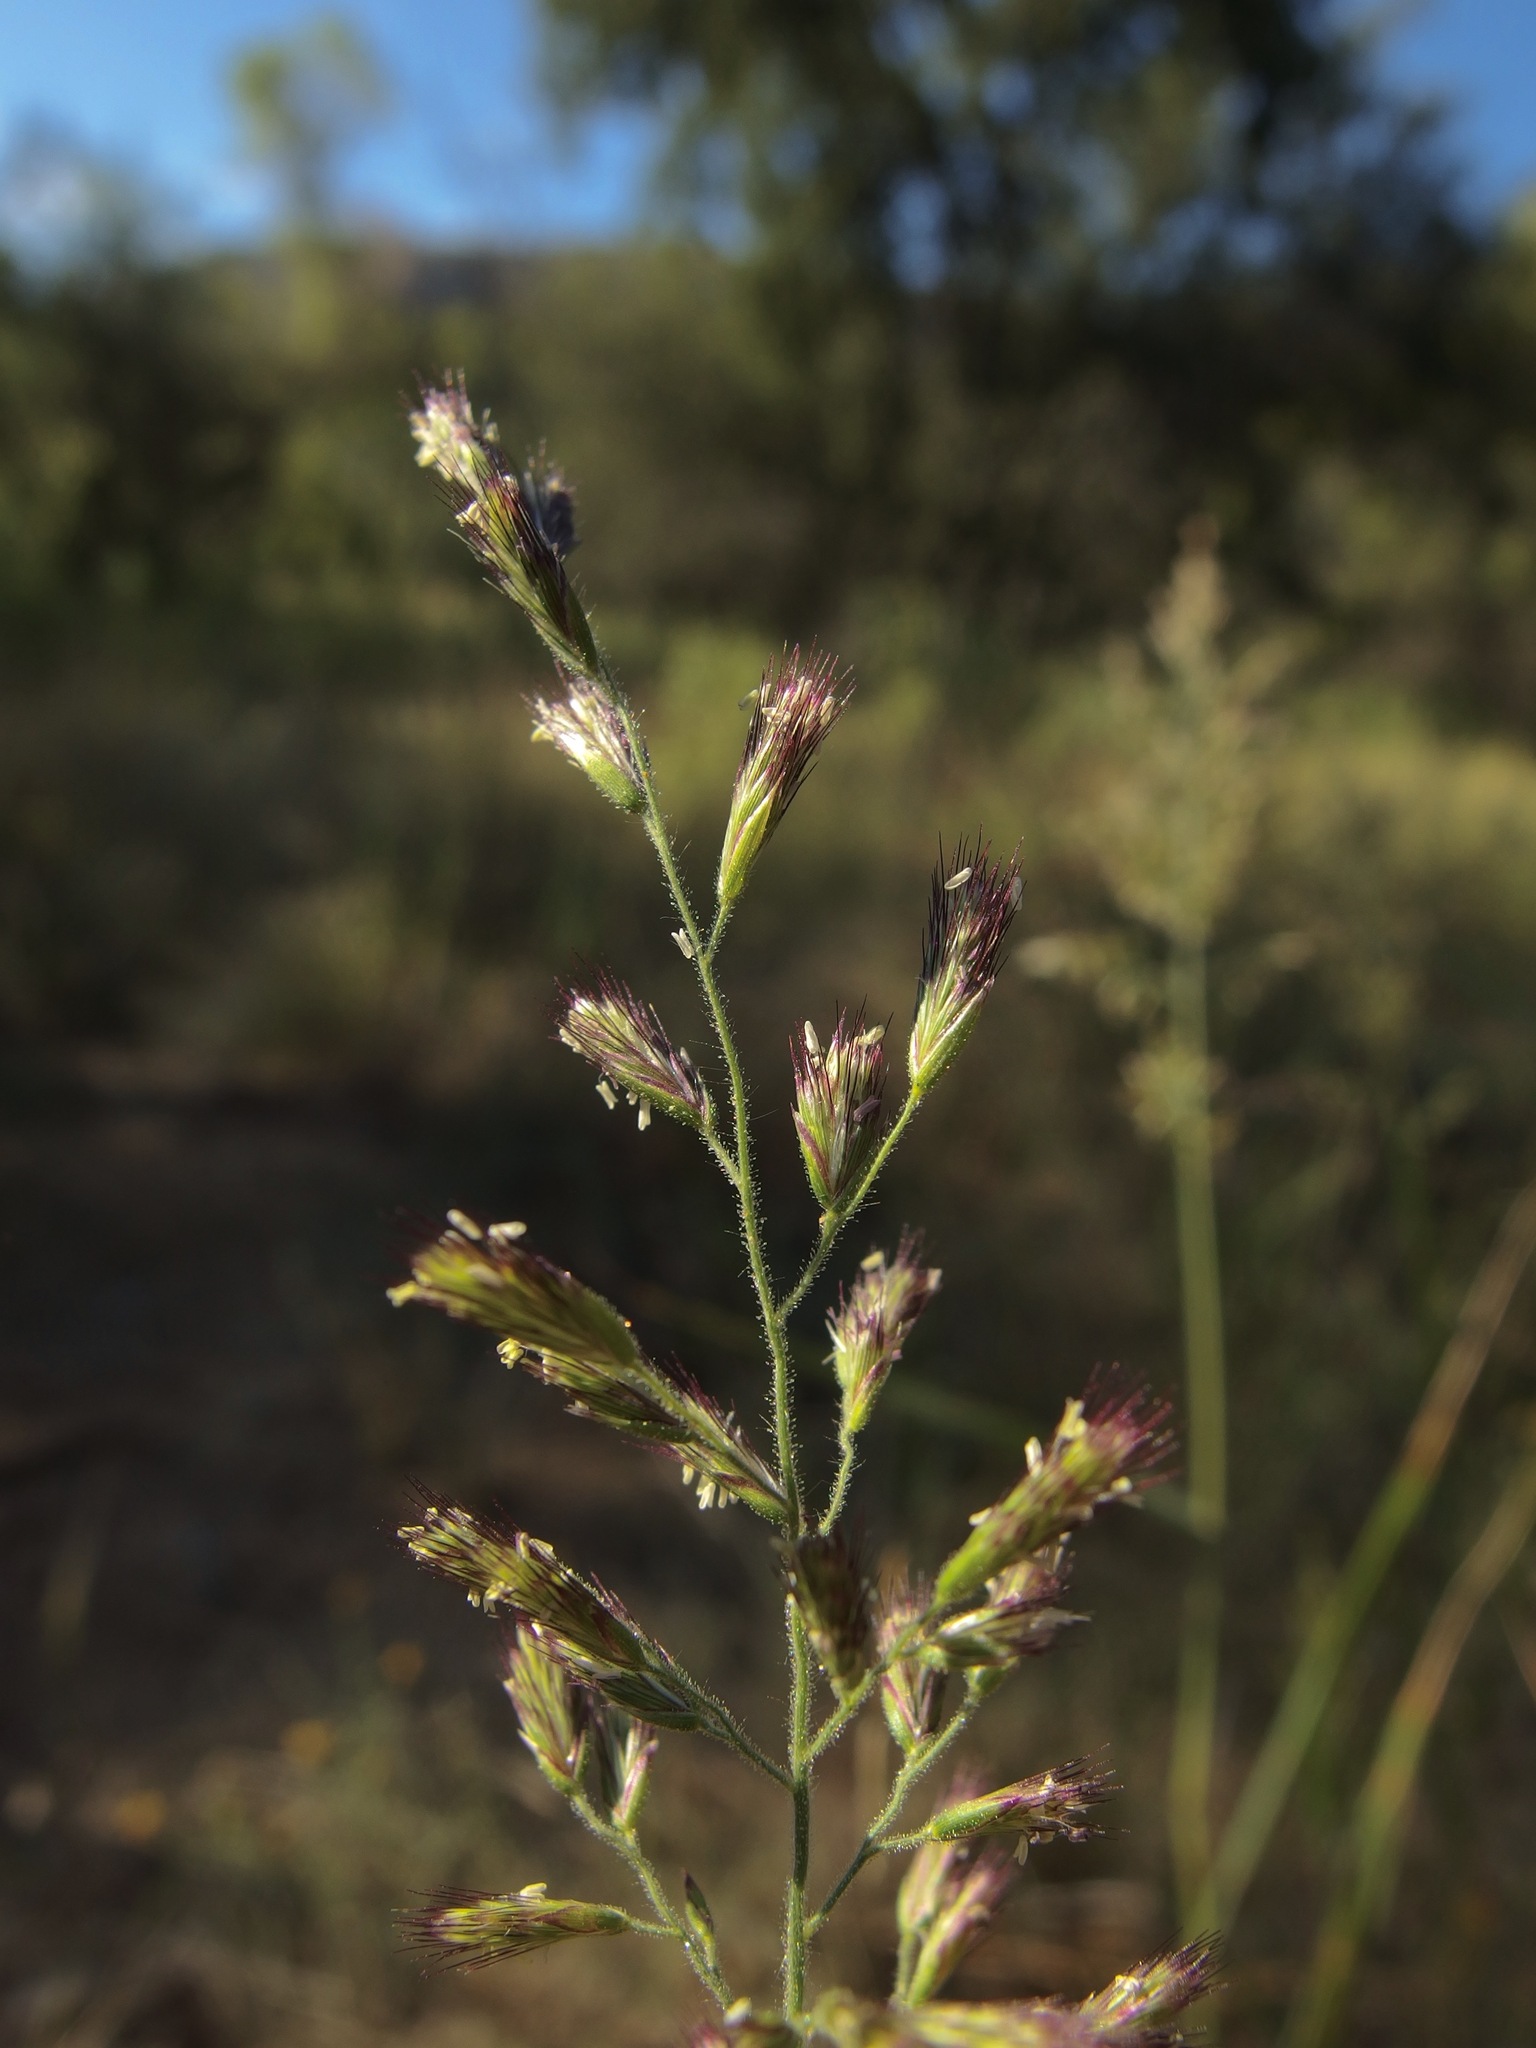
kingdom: Plantae
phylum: Tracheophyta
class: Liliopsida
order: Poales
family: Poaceae
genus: Cottea
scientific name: Cottea pappophoroides
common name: Cotta grass
